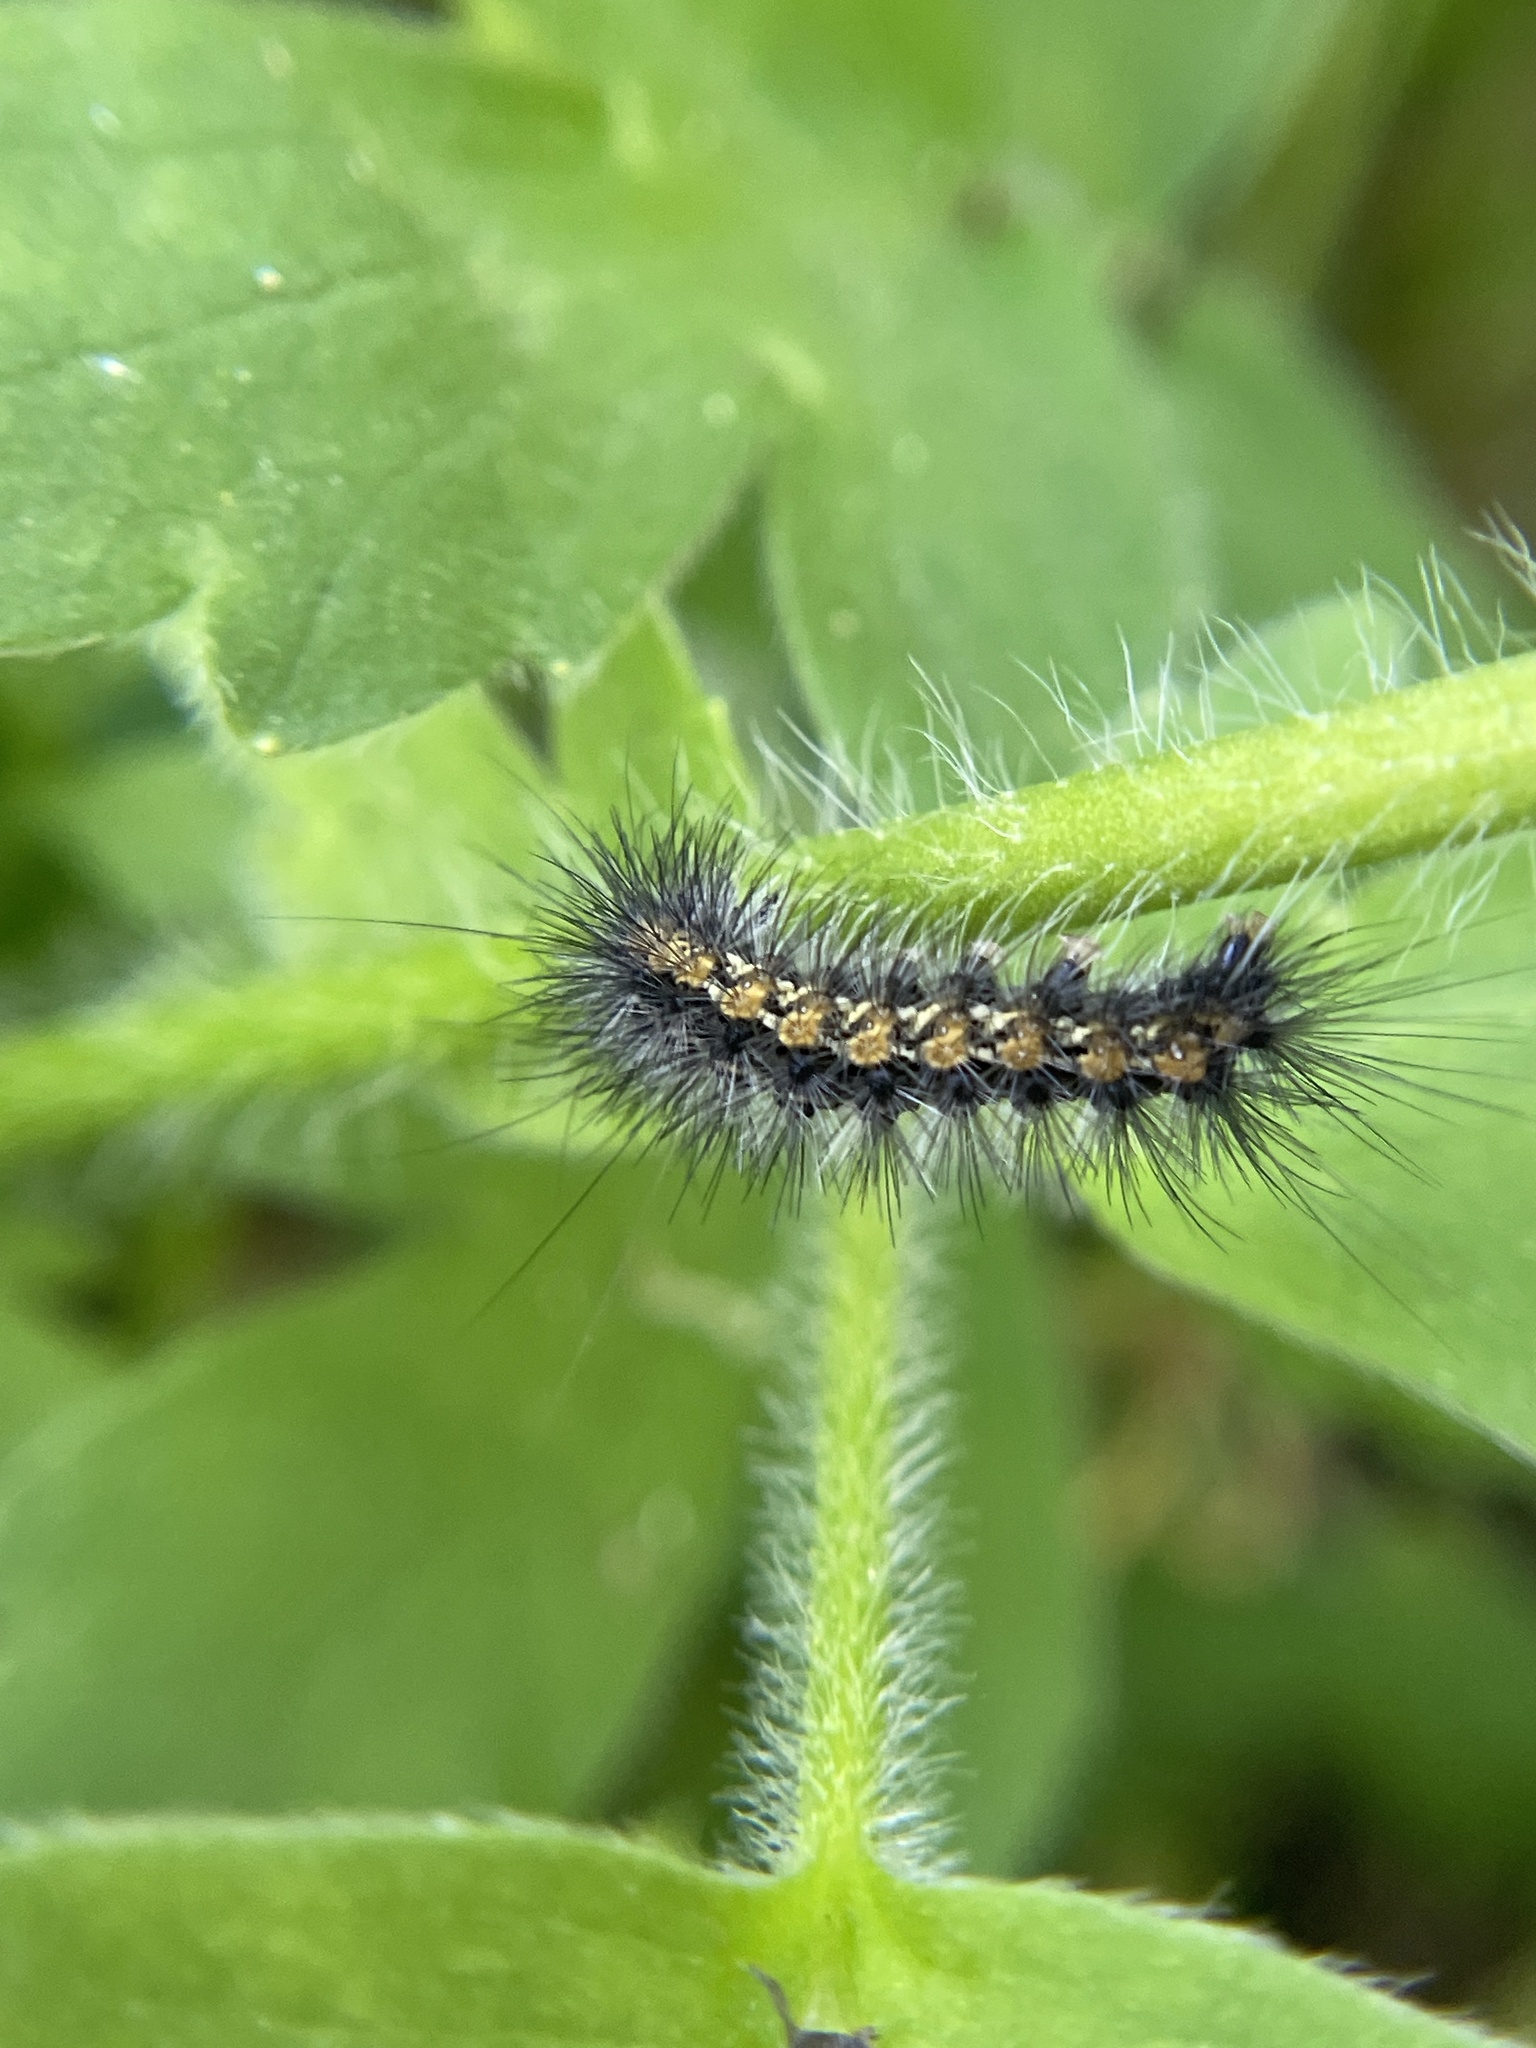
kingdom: Animalia
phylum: Arthropoda
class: Insecta
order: Lepidoptera
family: Erebidae
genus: Estigmene
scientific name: Estigmene acrea
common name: Salt marsh moth
